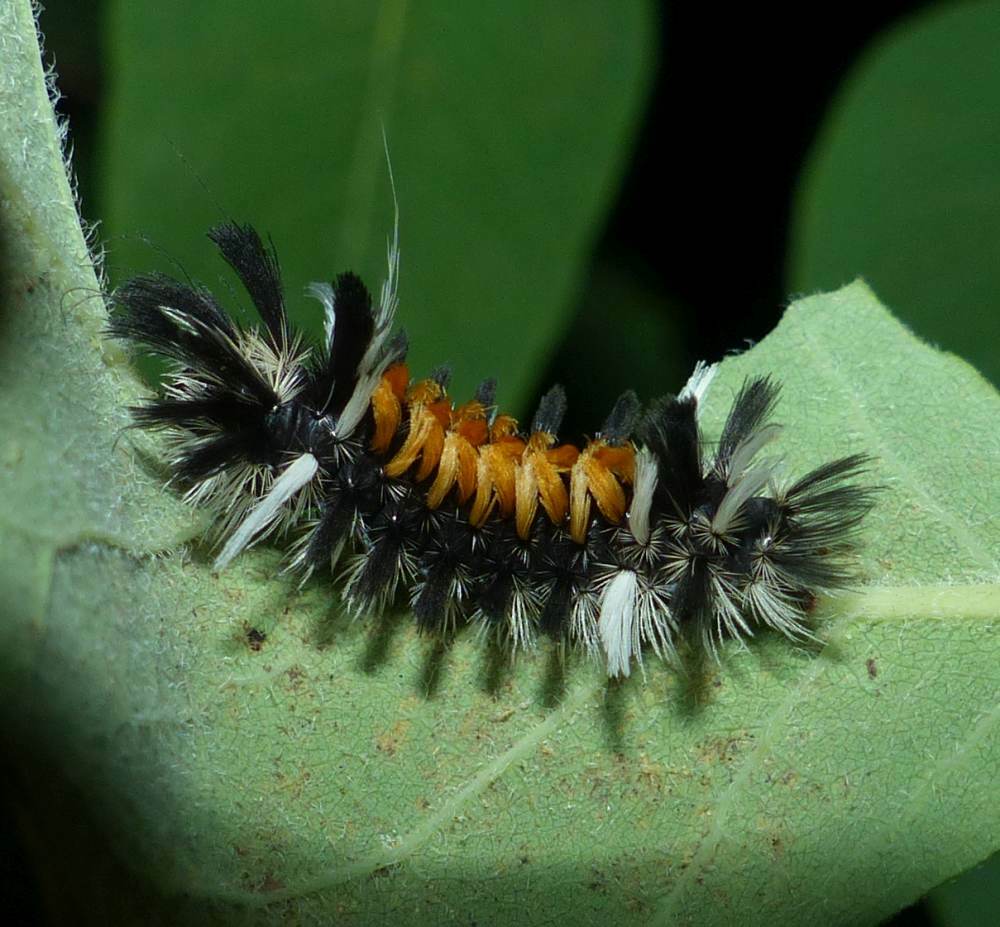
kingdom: Animalia
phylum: Arthropoda
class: Insecta
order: Lepidoptera
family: Erebidae
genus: Euchaetes
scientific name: Euchaetes egle
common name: Milkweed tussock moth
